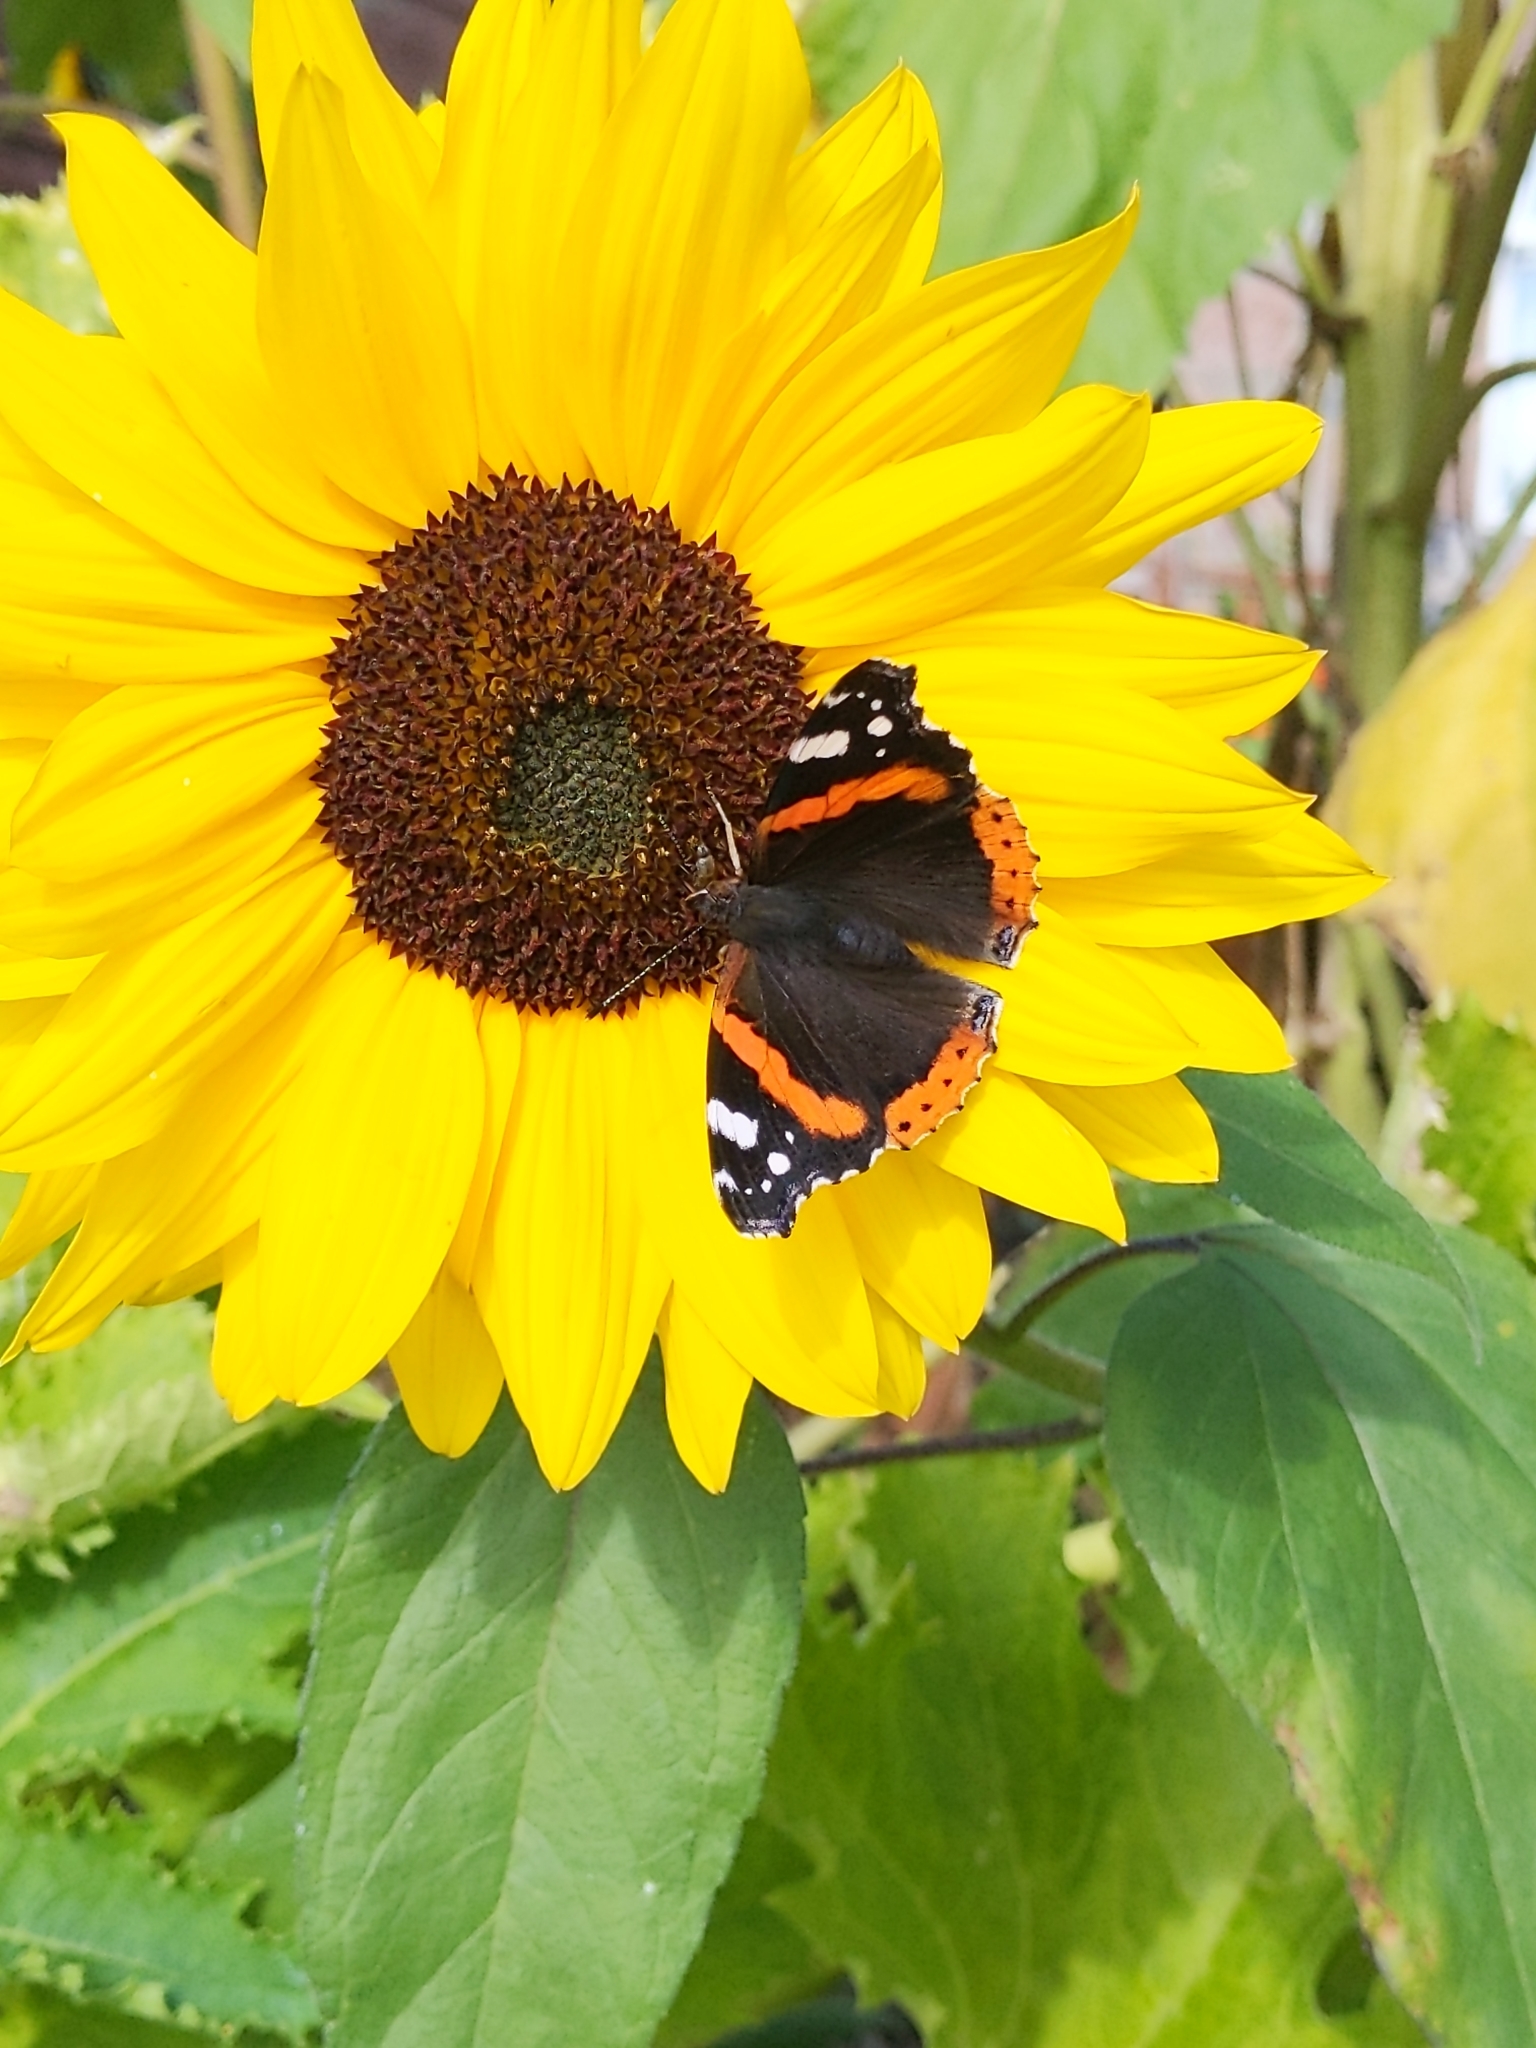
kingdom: Animalia
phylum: Arthropoda
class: Insecta
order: Lepidoptera
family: Nymphalidae
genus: Vanessa
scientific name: Vanessa atalanta
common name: Red admiral
